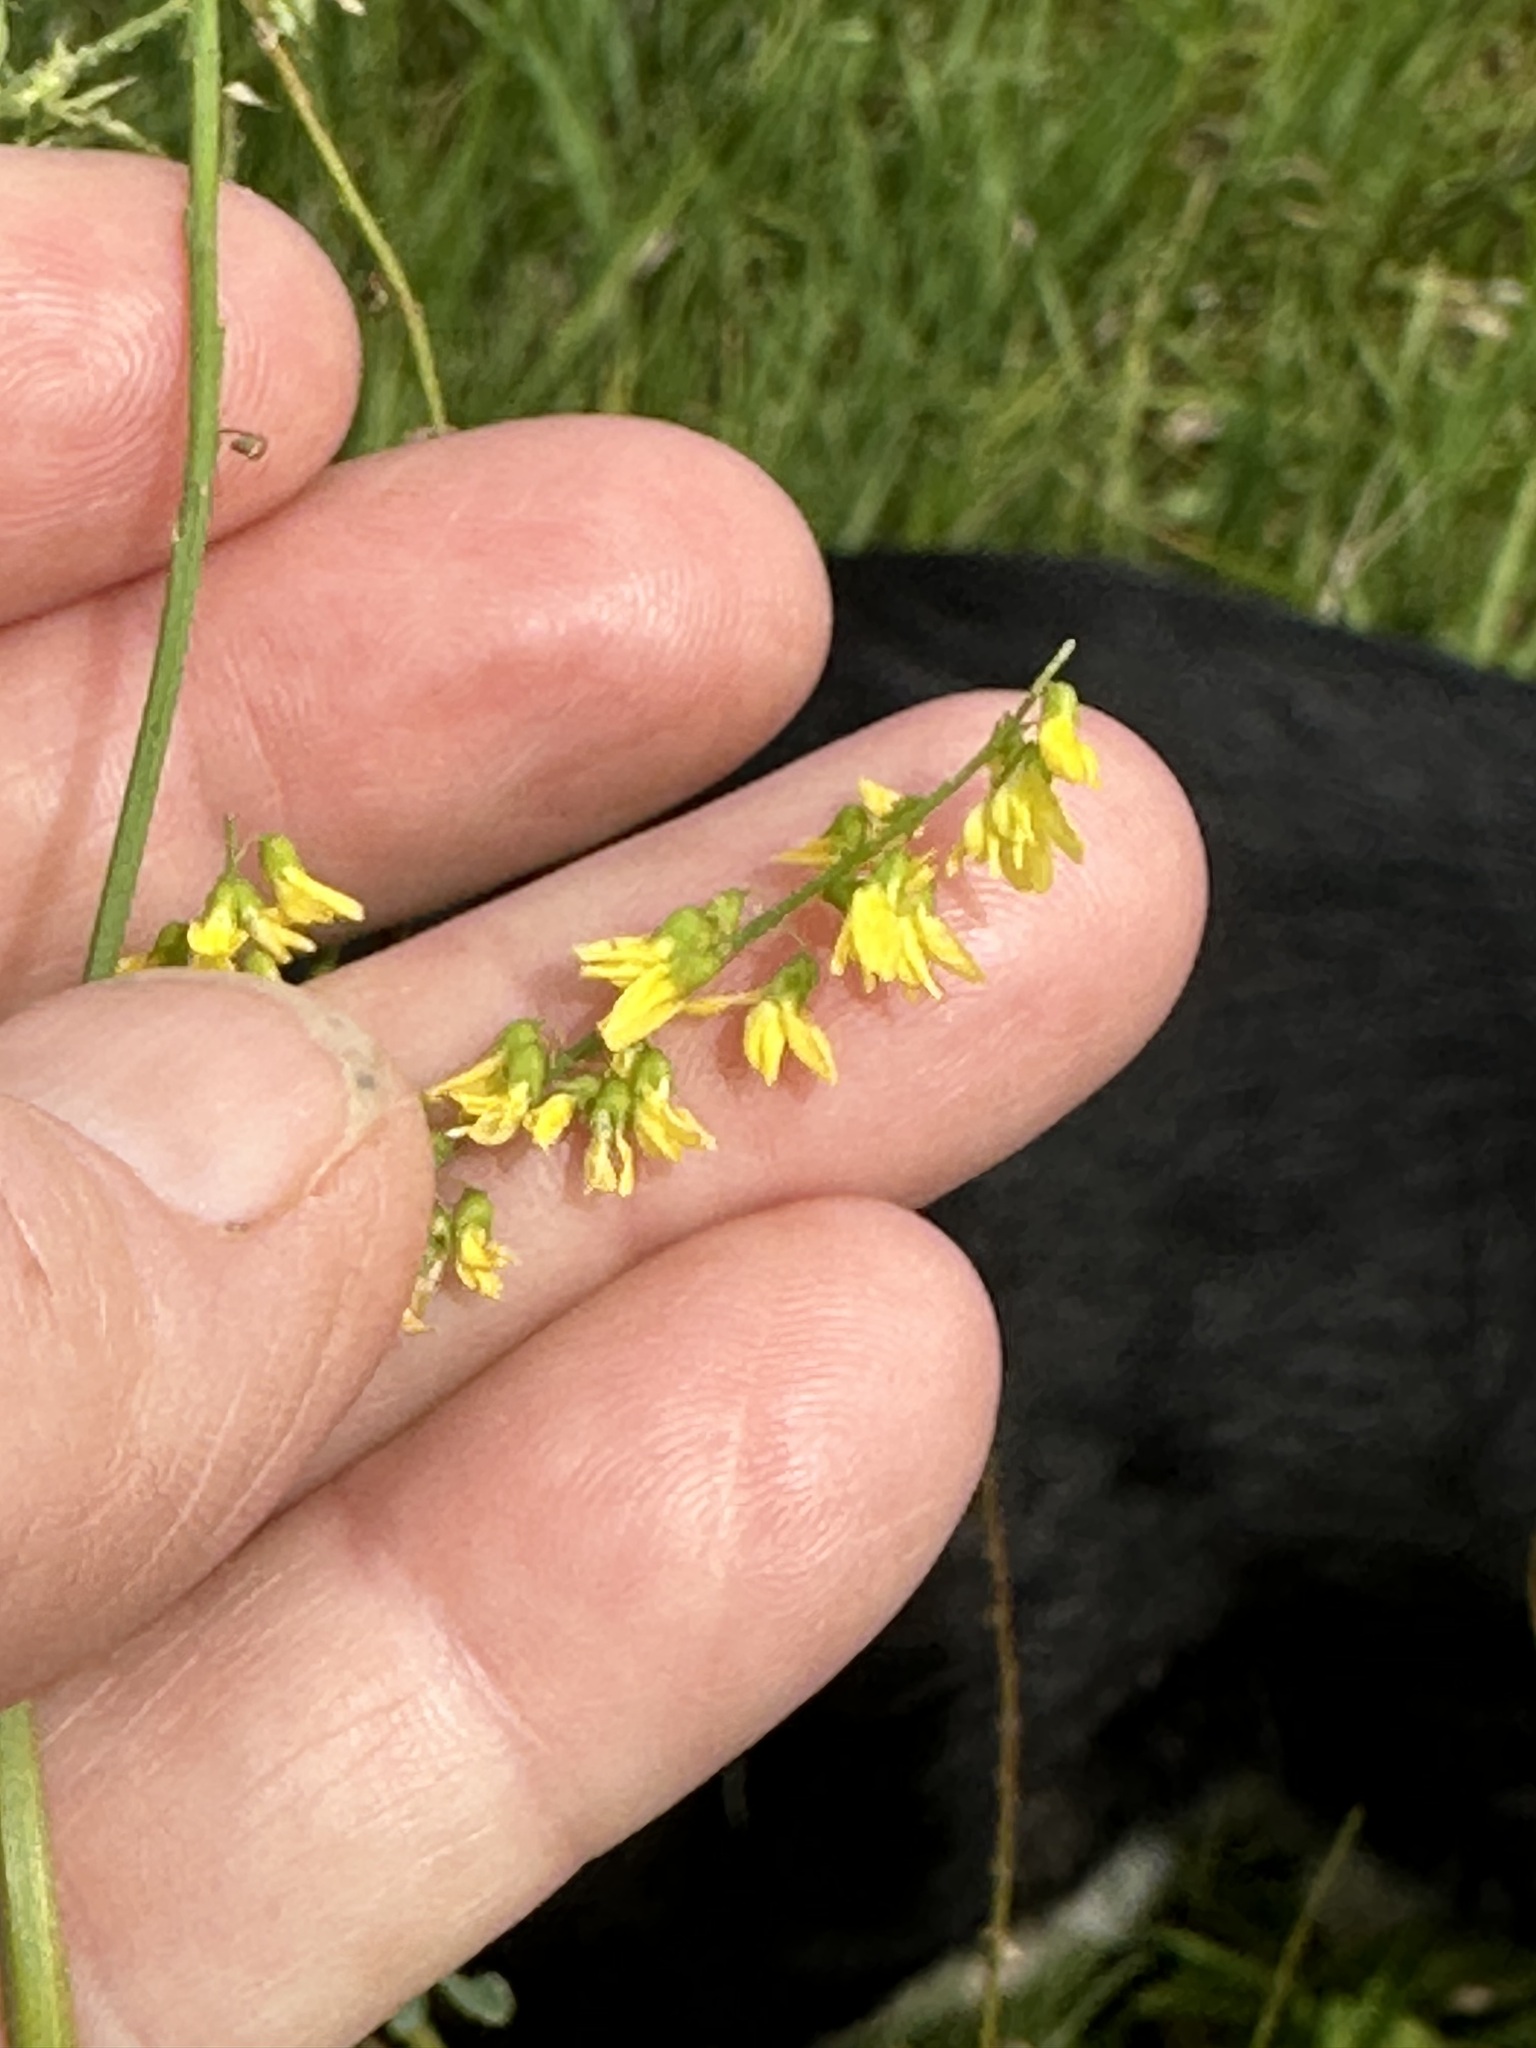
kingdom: Plantae
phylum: Tracheophyta
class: Magnoliopsida
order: Fabales
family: Fabaceae
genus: Melilotus
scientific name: Melilotus officinalis
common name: Sweetclover
